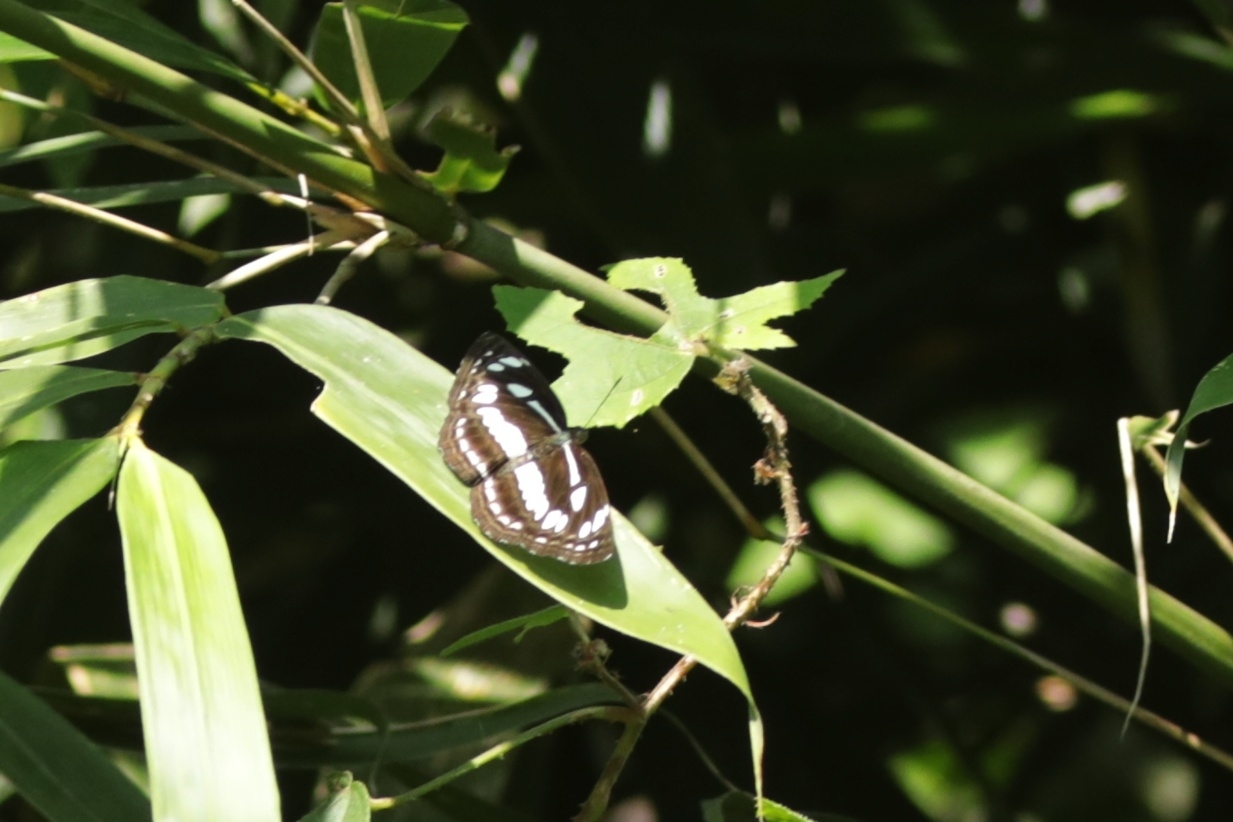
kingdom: Animalia
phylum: Arthropoda
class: Insecta
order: Lepidoptera
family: Nymphalidae
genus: Neptis
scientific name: Neptis jumbah
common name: Chestnut-streaked sailer
